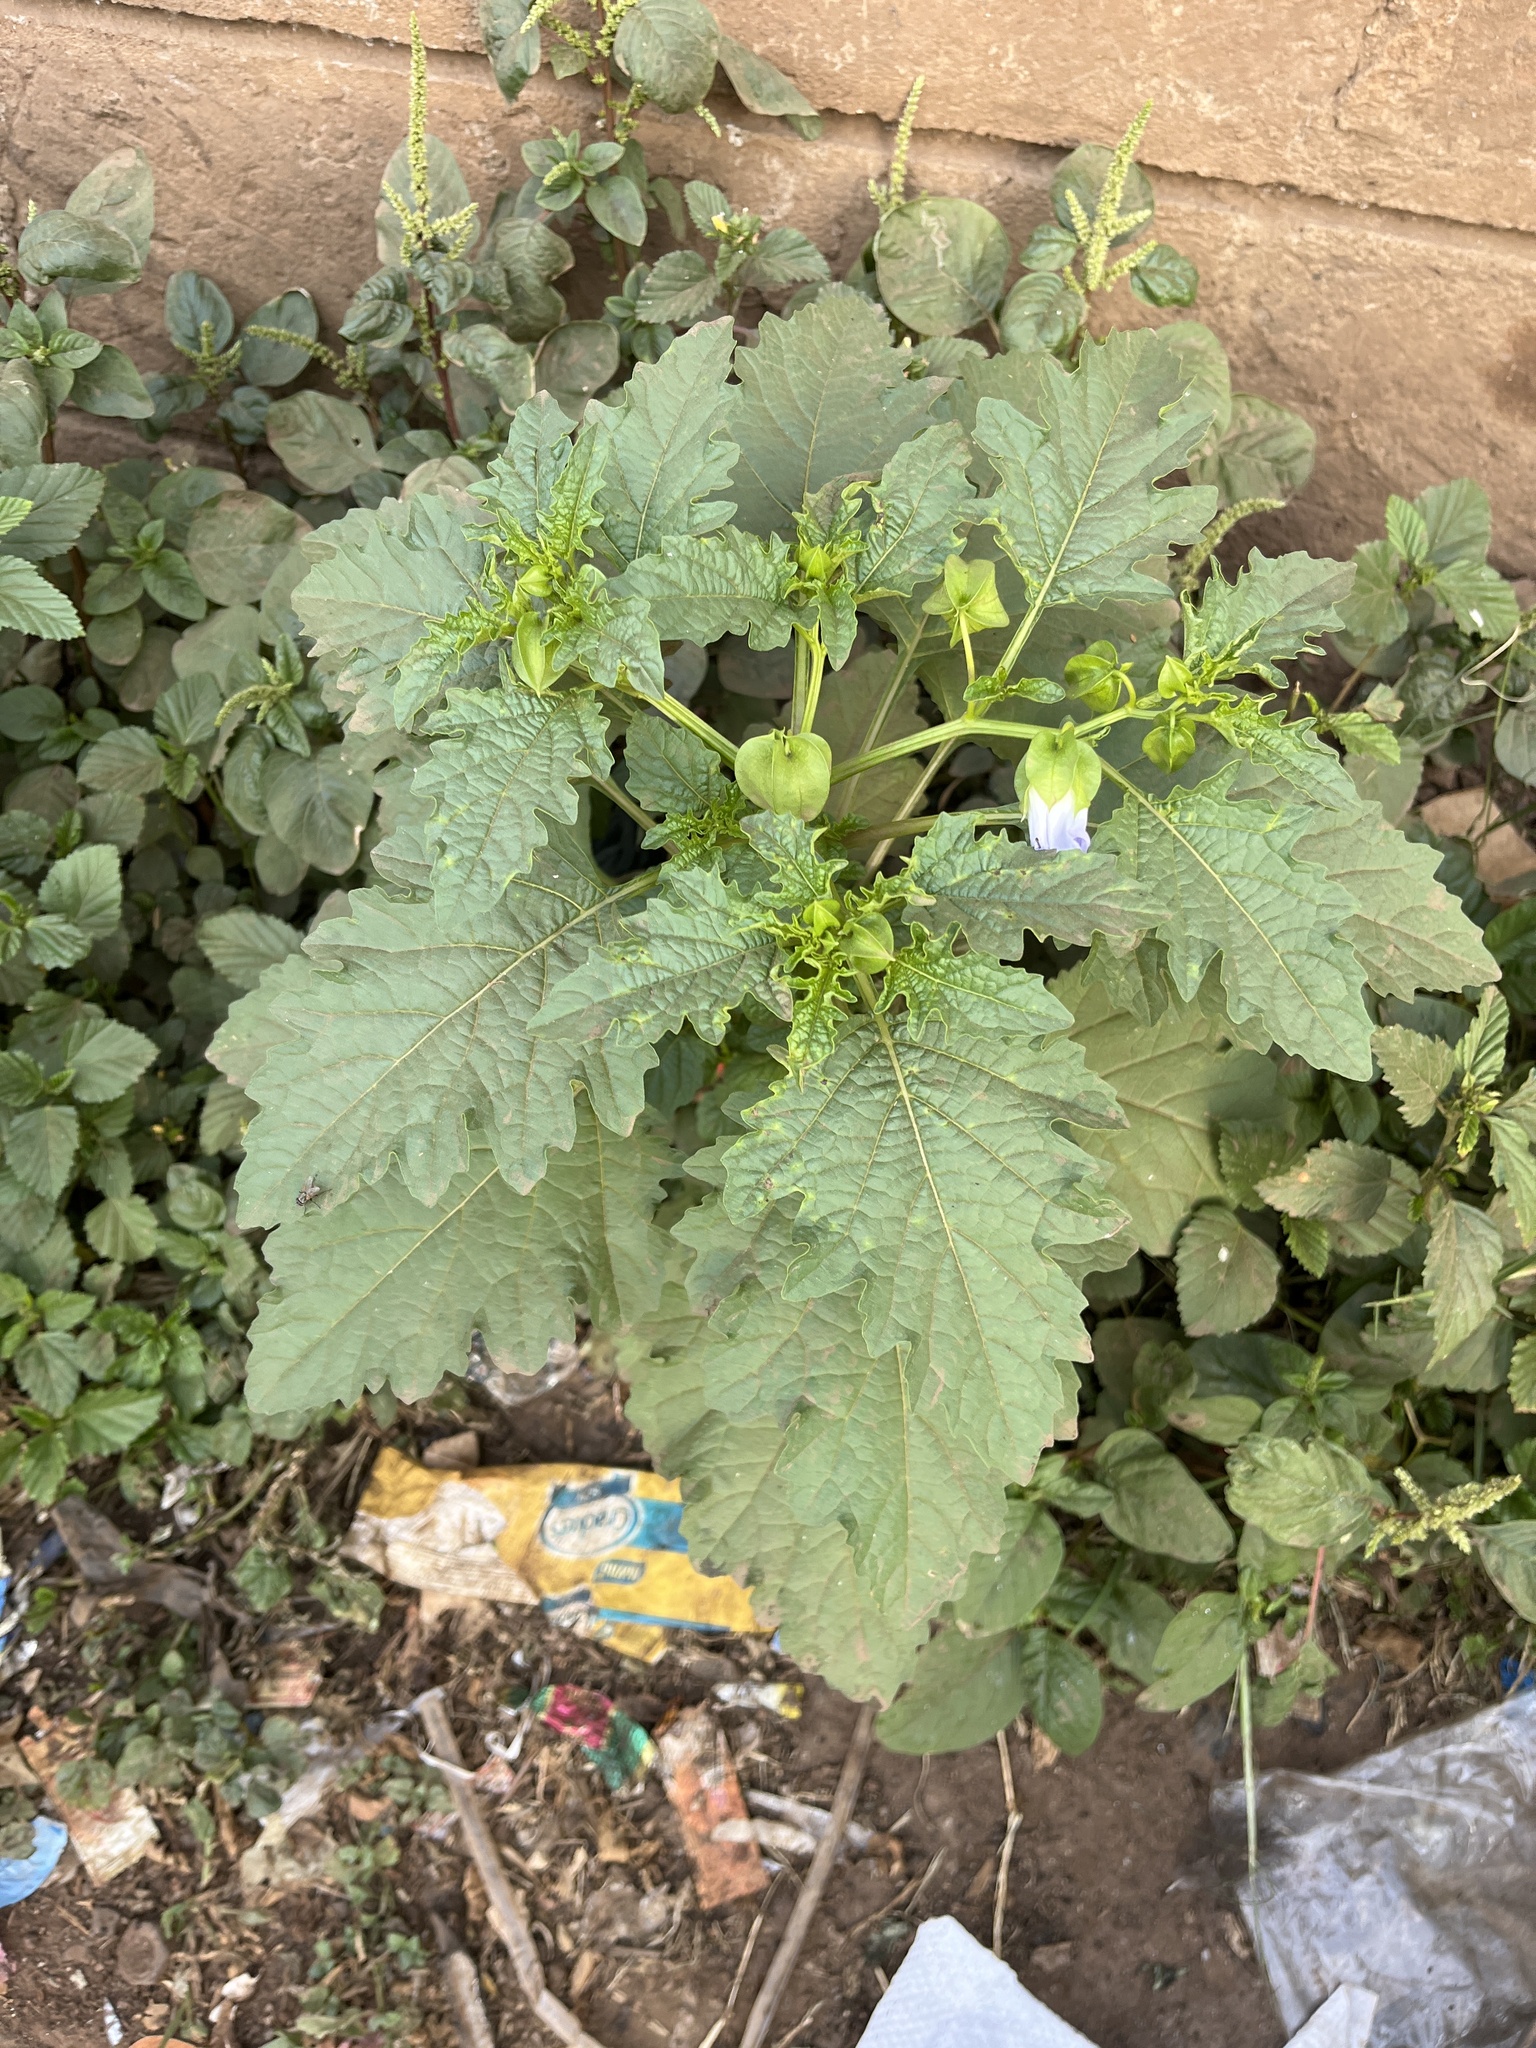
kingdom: Plantae
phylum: Tracheophyta
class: Magnoliopsida
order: Solanales
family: Solanaceae
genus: Nicandra
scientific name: Nicandra physalodes
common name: Apple-of-peru
